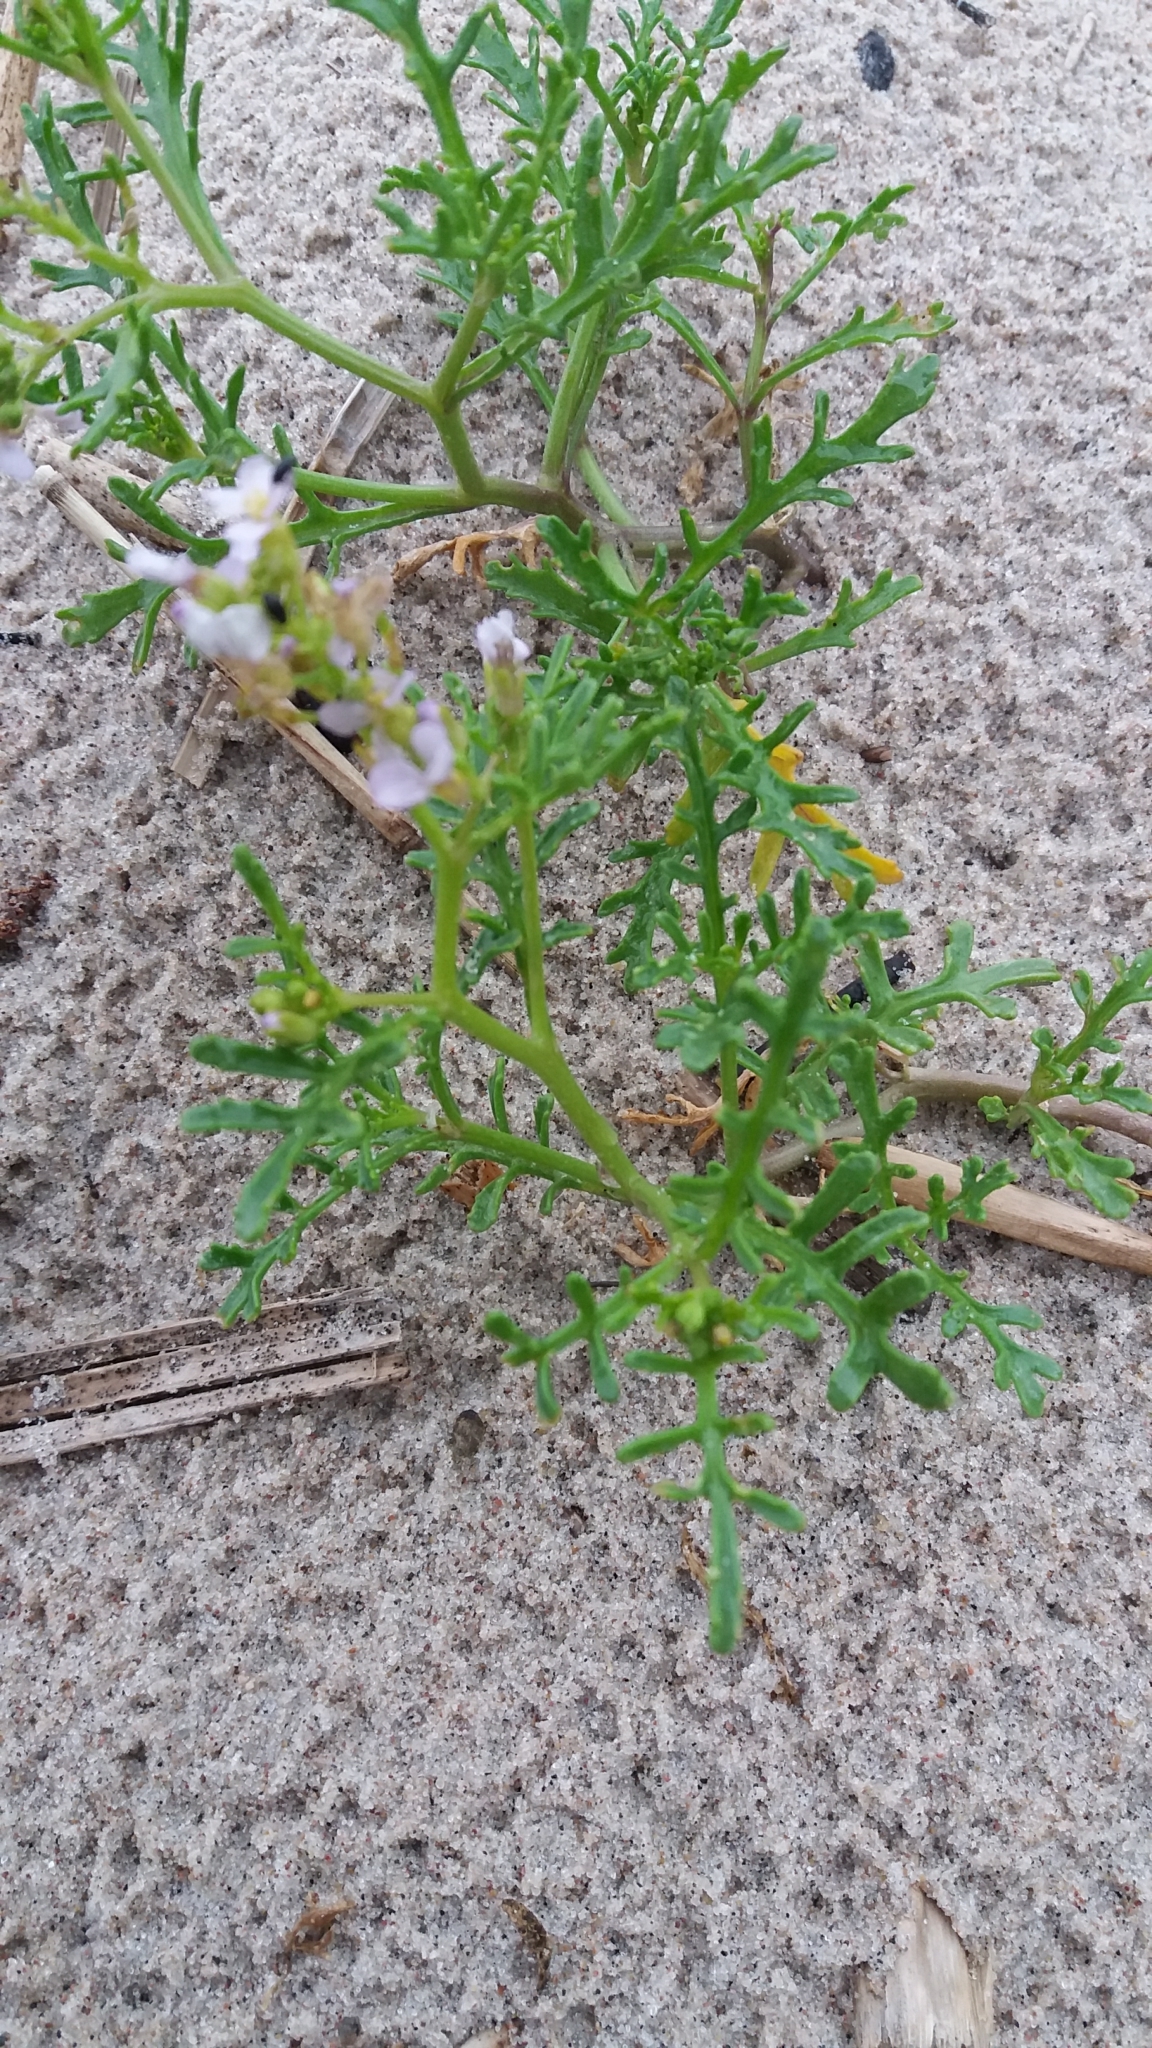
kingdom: Plantae
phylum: Tracheophyta
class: Magnoliopsida
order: Brassicales
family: Brassicaceae
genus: Cakile
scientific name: Cakile maritima
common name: Sea rocket
